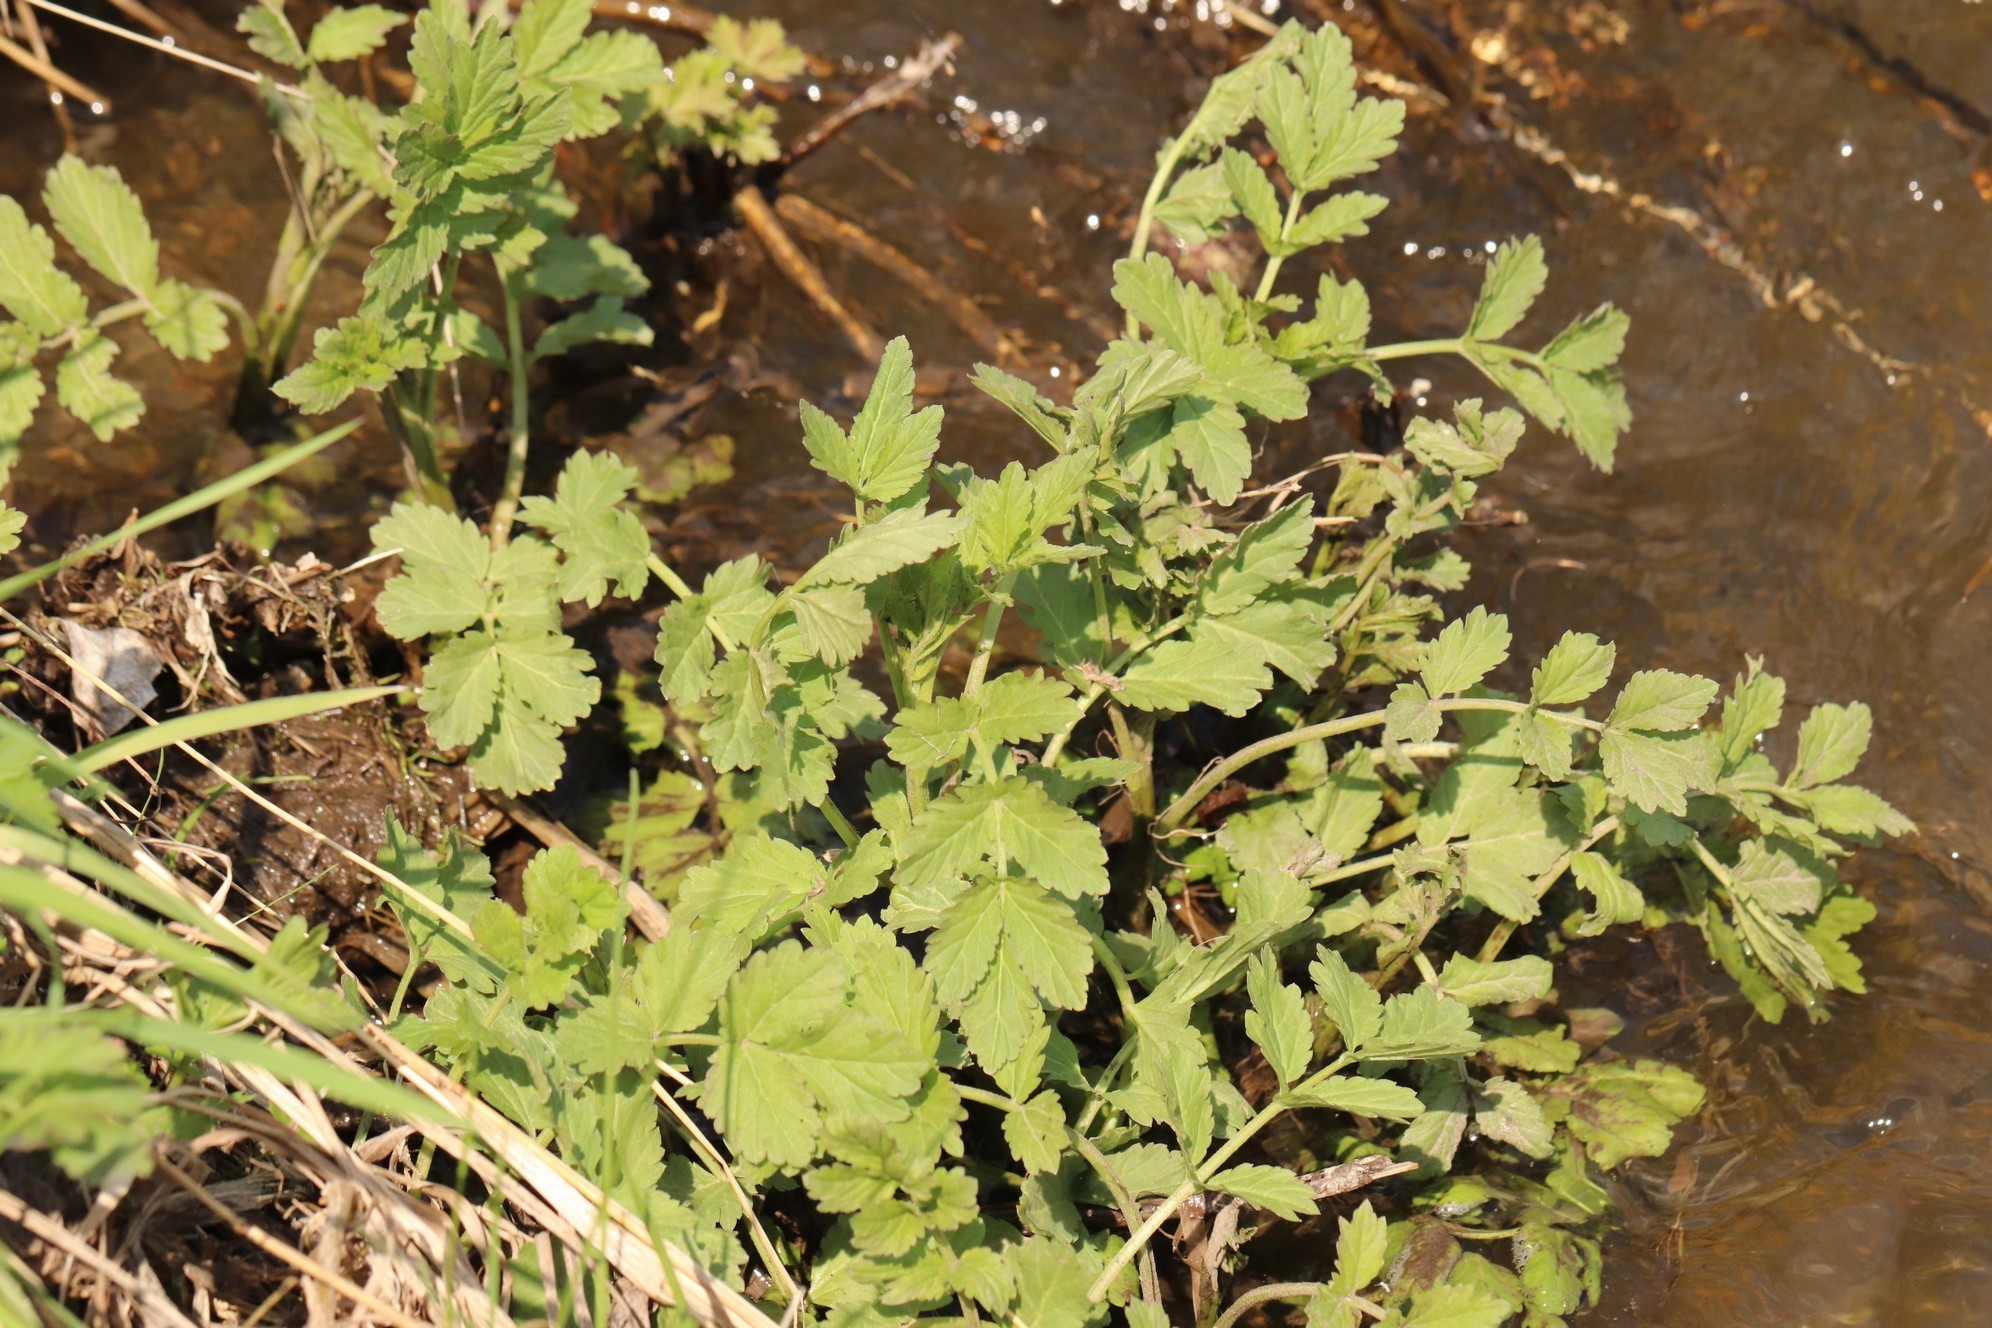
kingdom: Plantae
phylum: Tracheophyta
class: Magnoliopsida
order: Brassicales
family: Brassicaceae
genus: Cardamine
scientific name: Cardamine macrophylla
